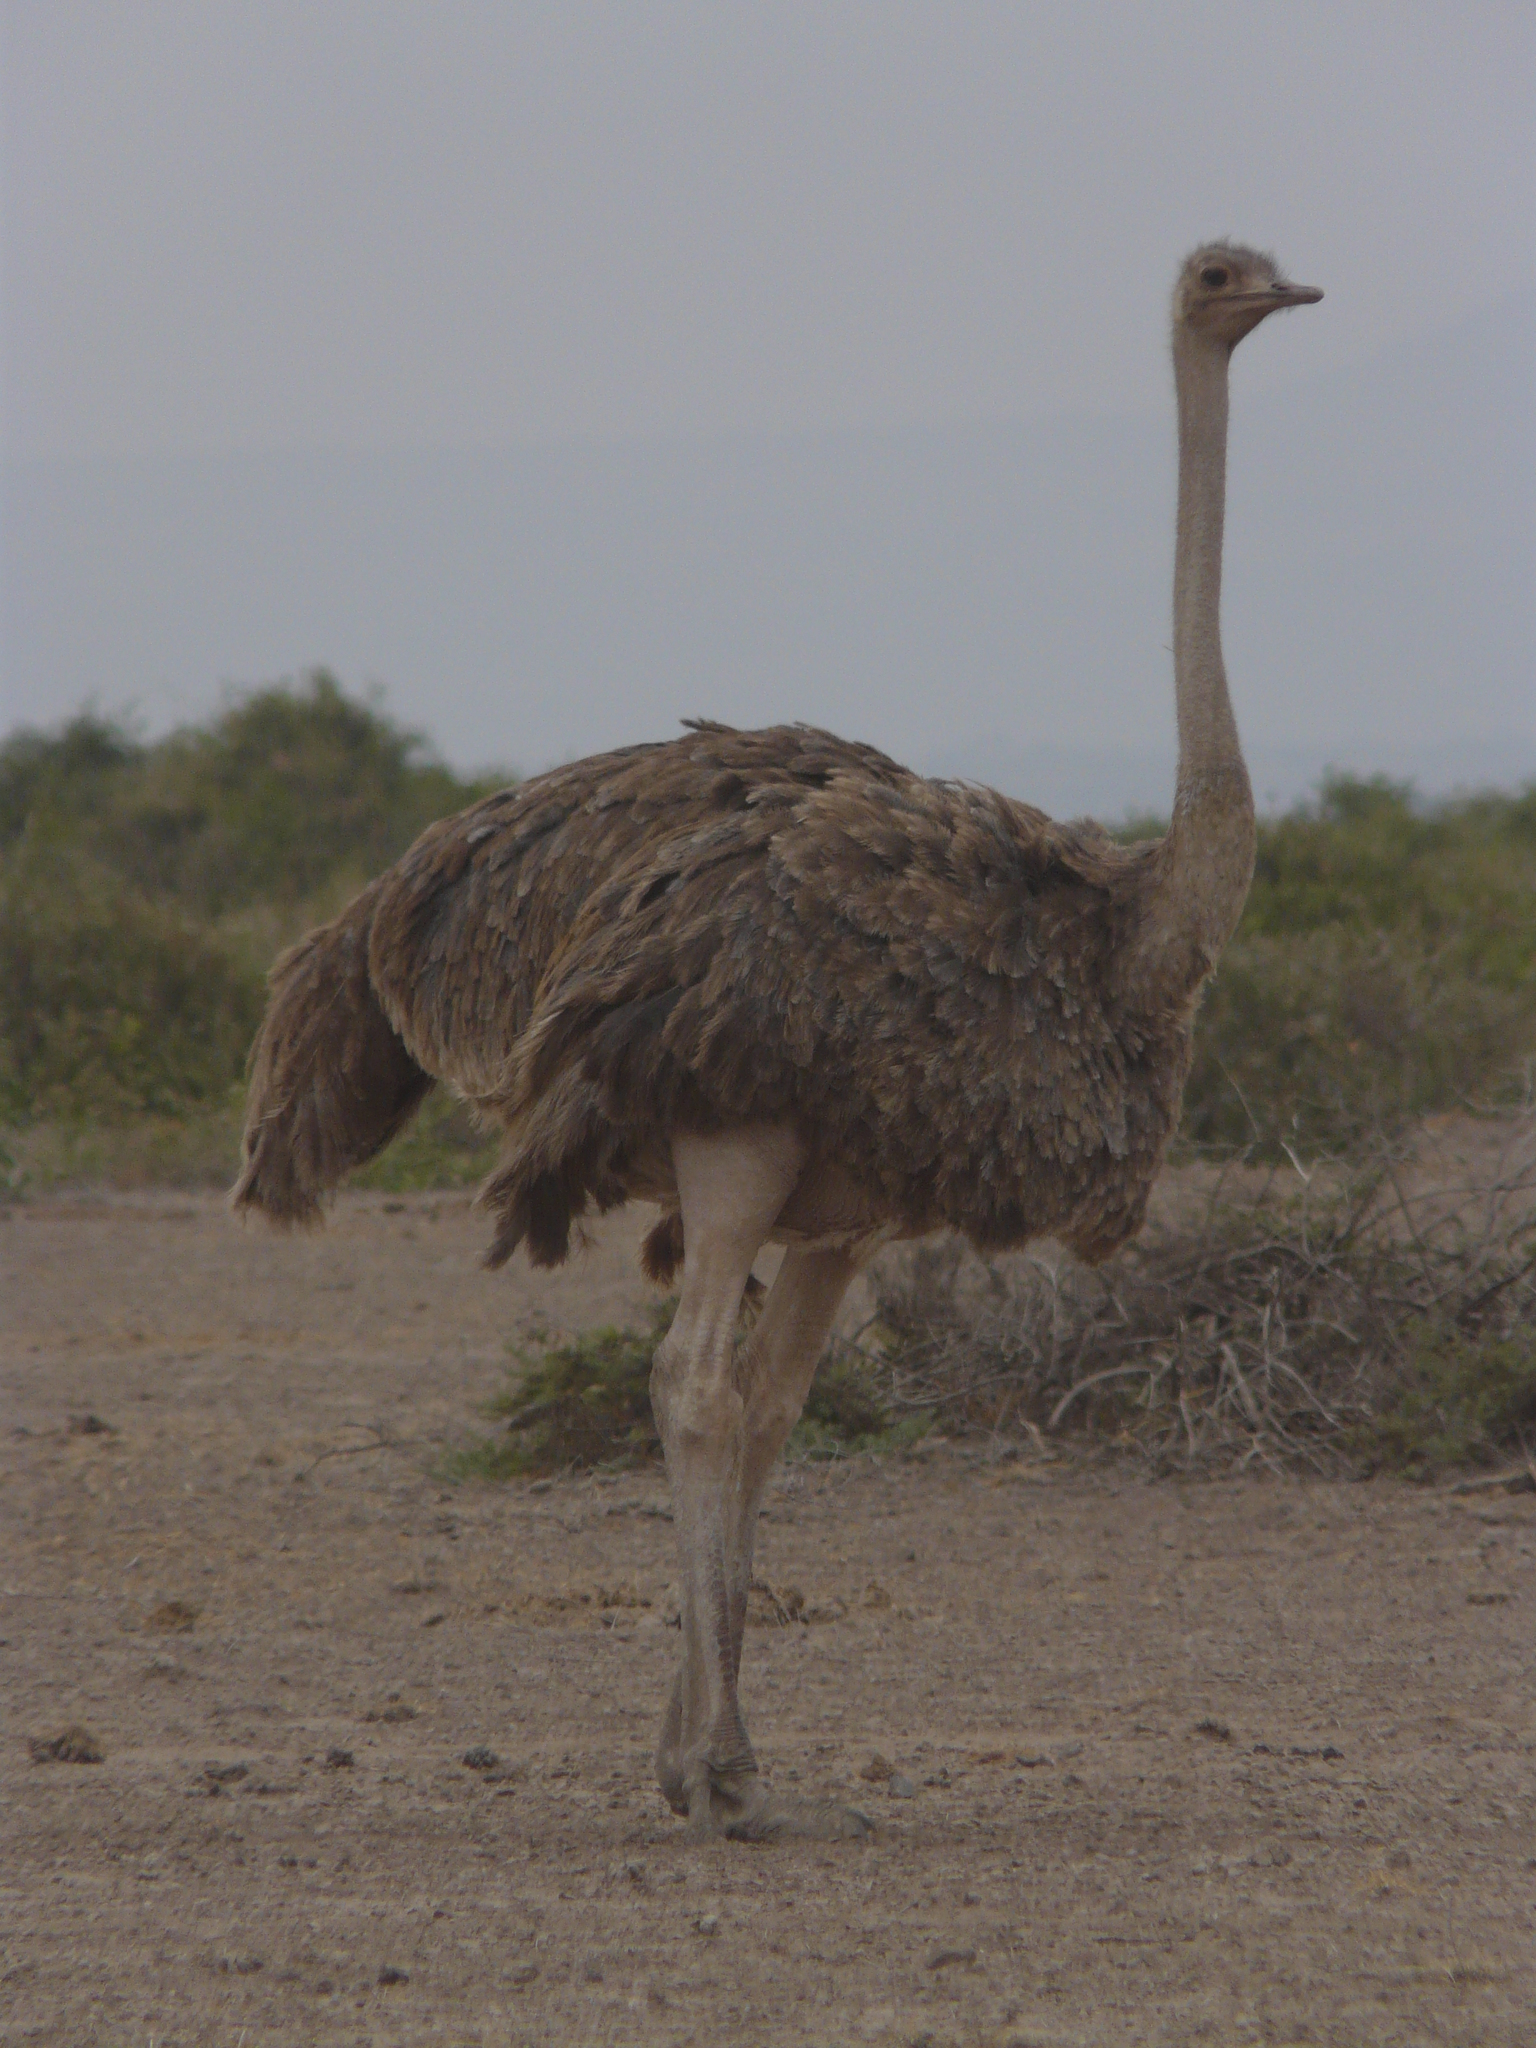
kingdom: Animalia
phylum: Chordata
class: Aves
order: Struthioniformes
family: Struthionidae
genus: Struthio
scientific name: Struthio camelus
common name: Common ostrich
